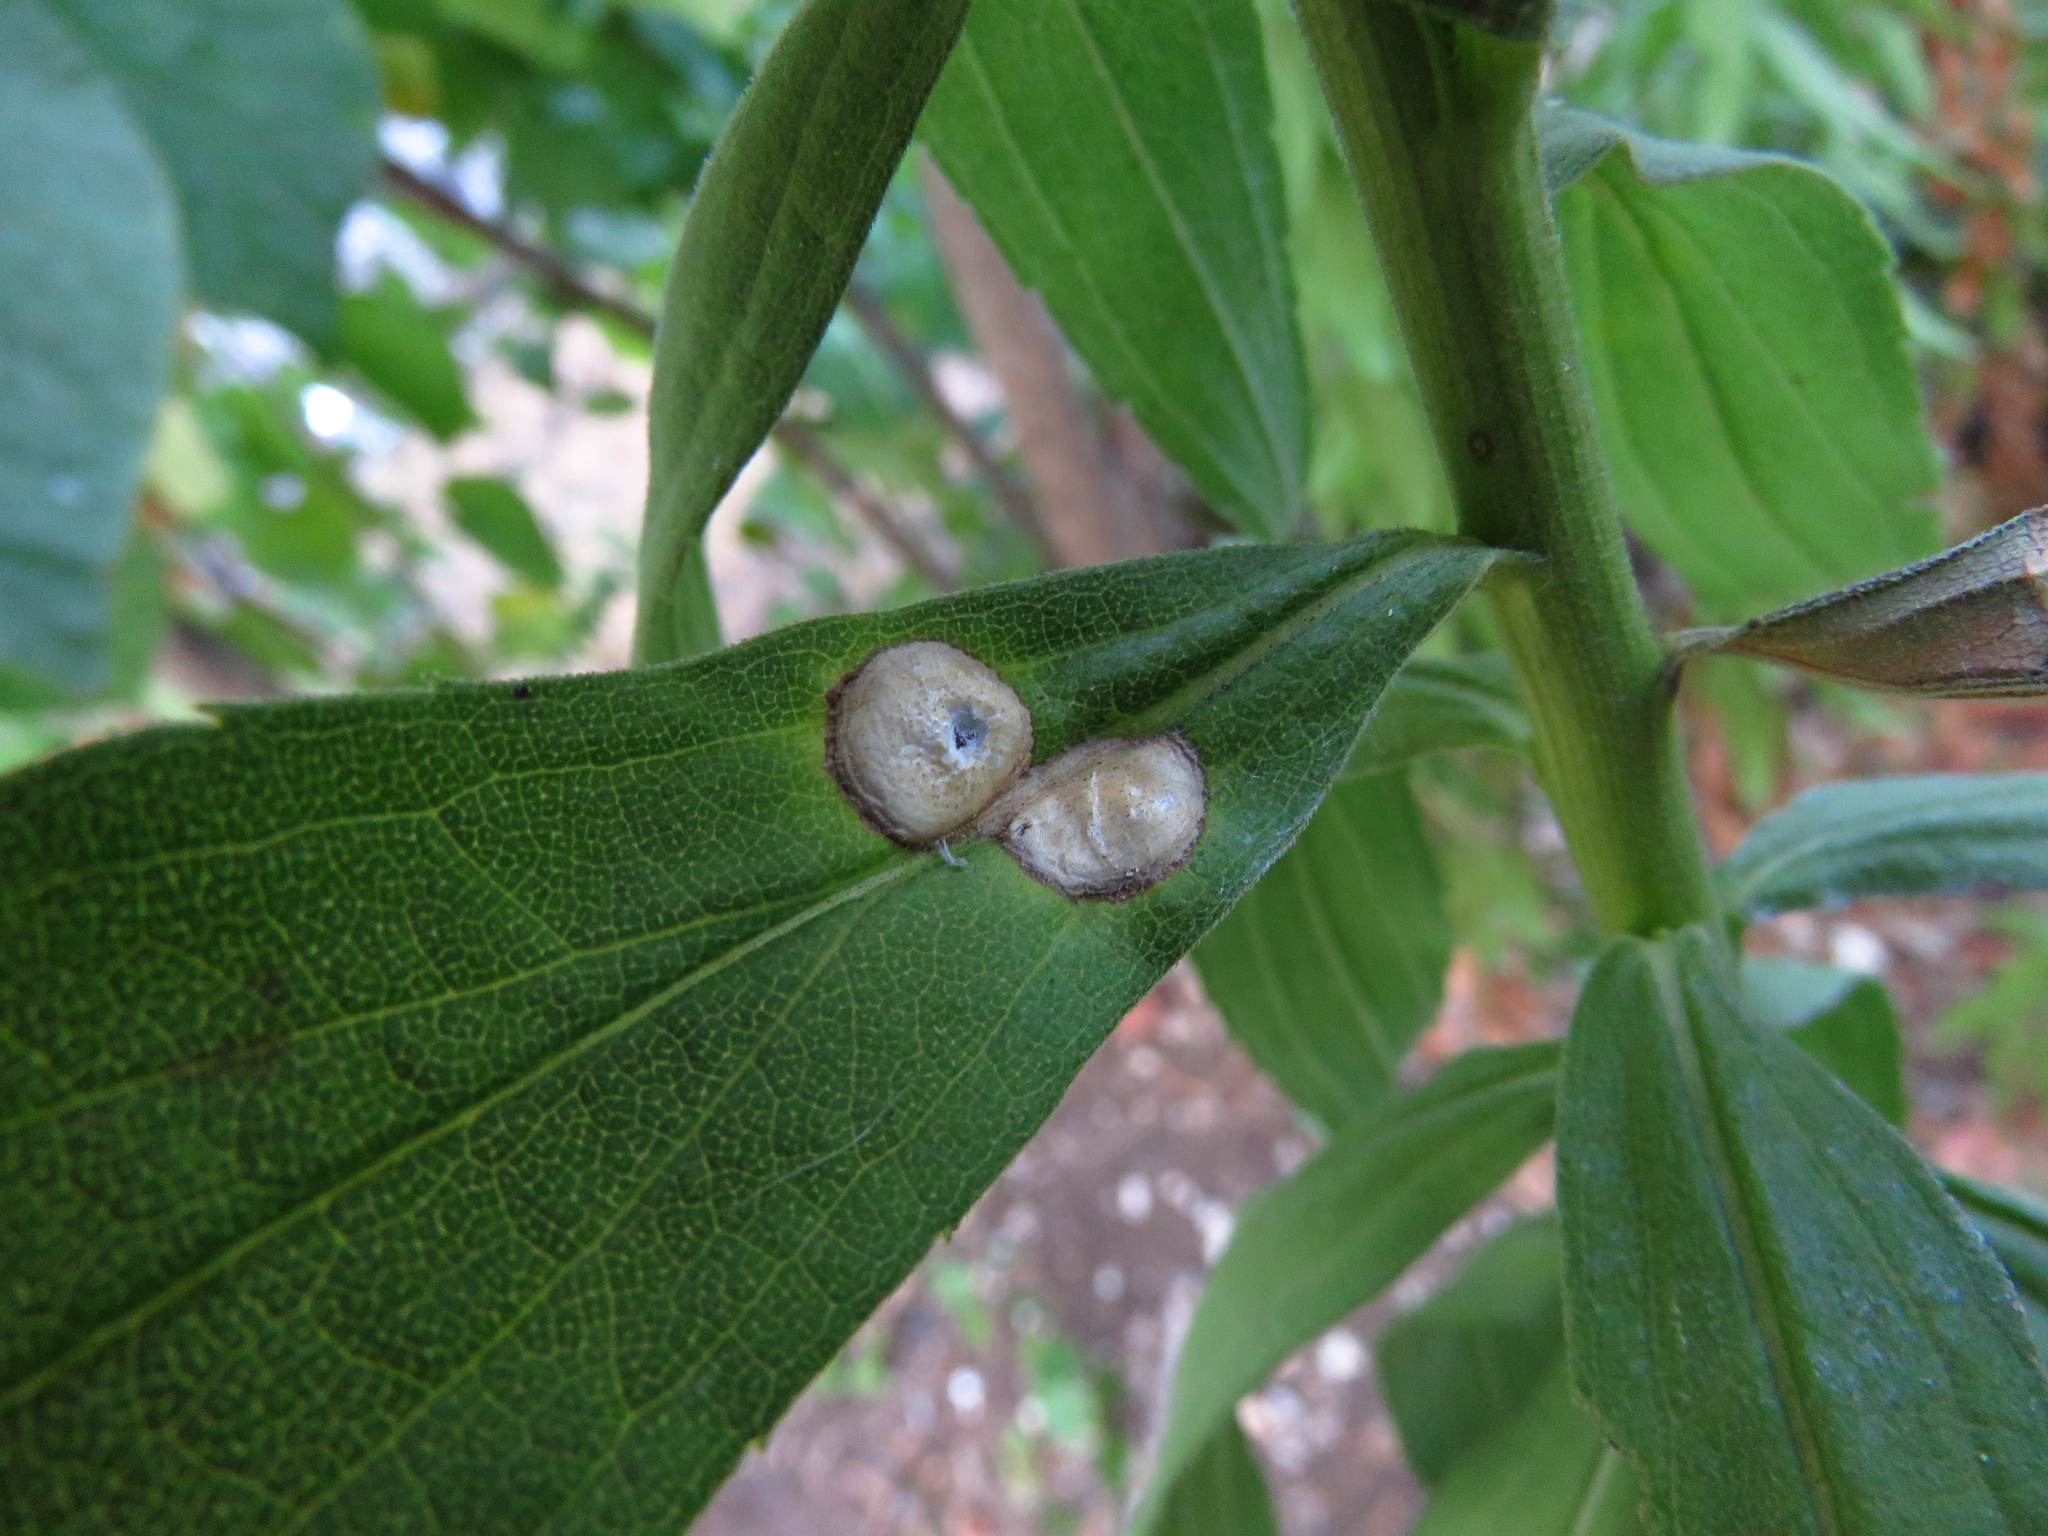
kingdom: Animalia
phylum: Arthropoda
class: Insecta
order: Diptera
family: Cecidomyiidae
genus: Asteromyia
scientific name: Asteromyia carbonifera
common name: Carbonifera goldenrod gall midge
